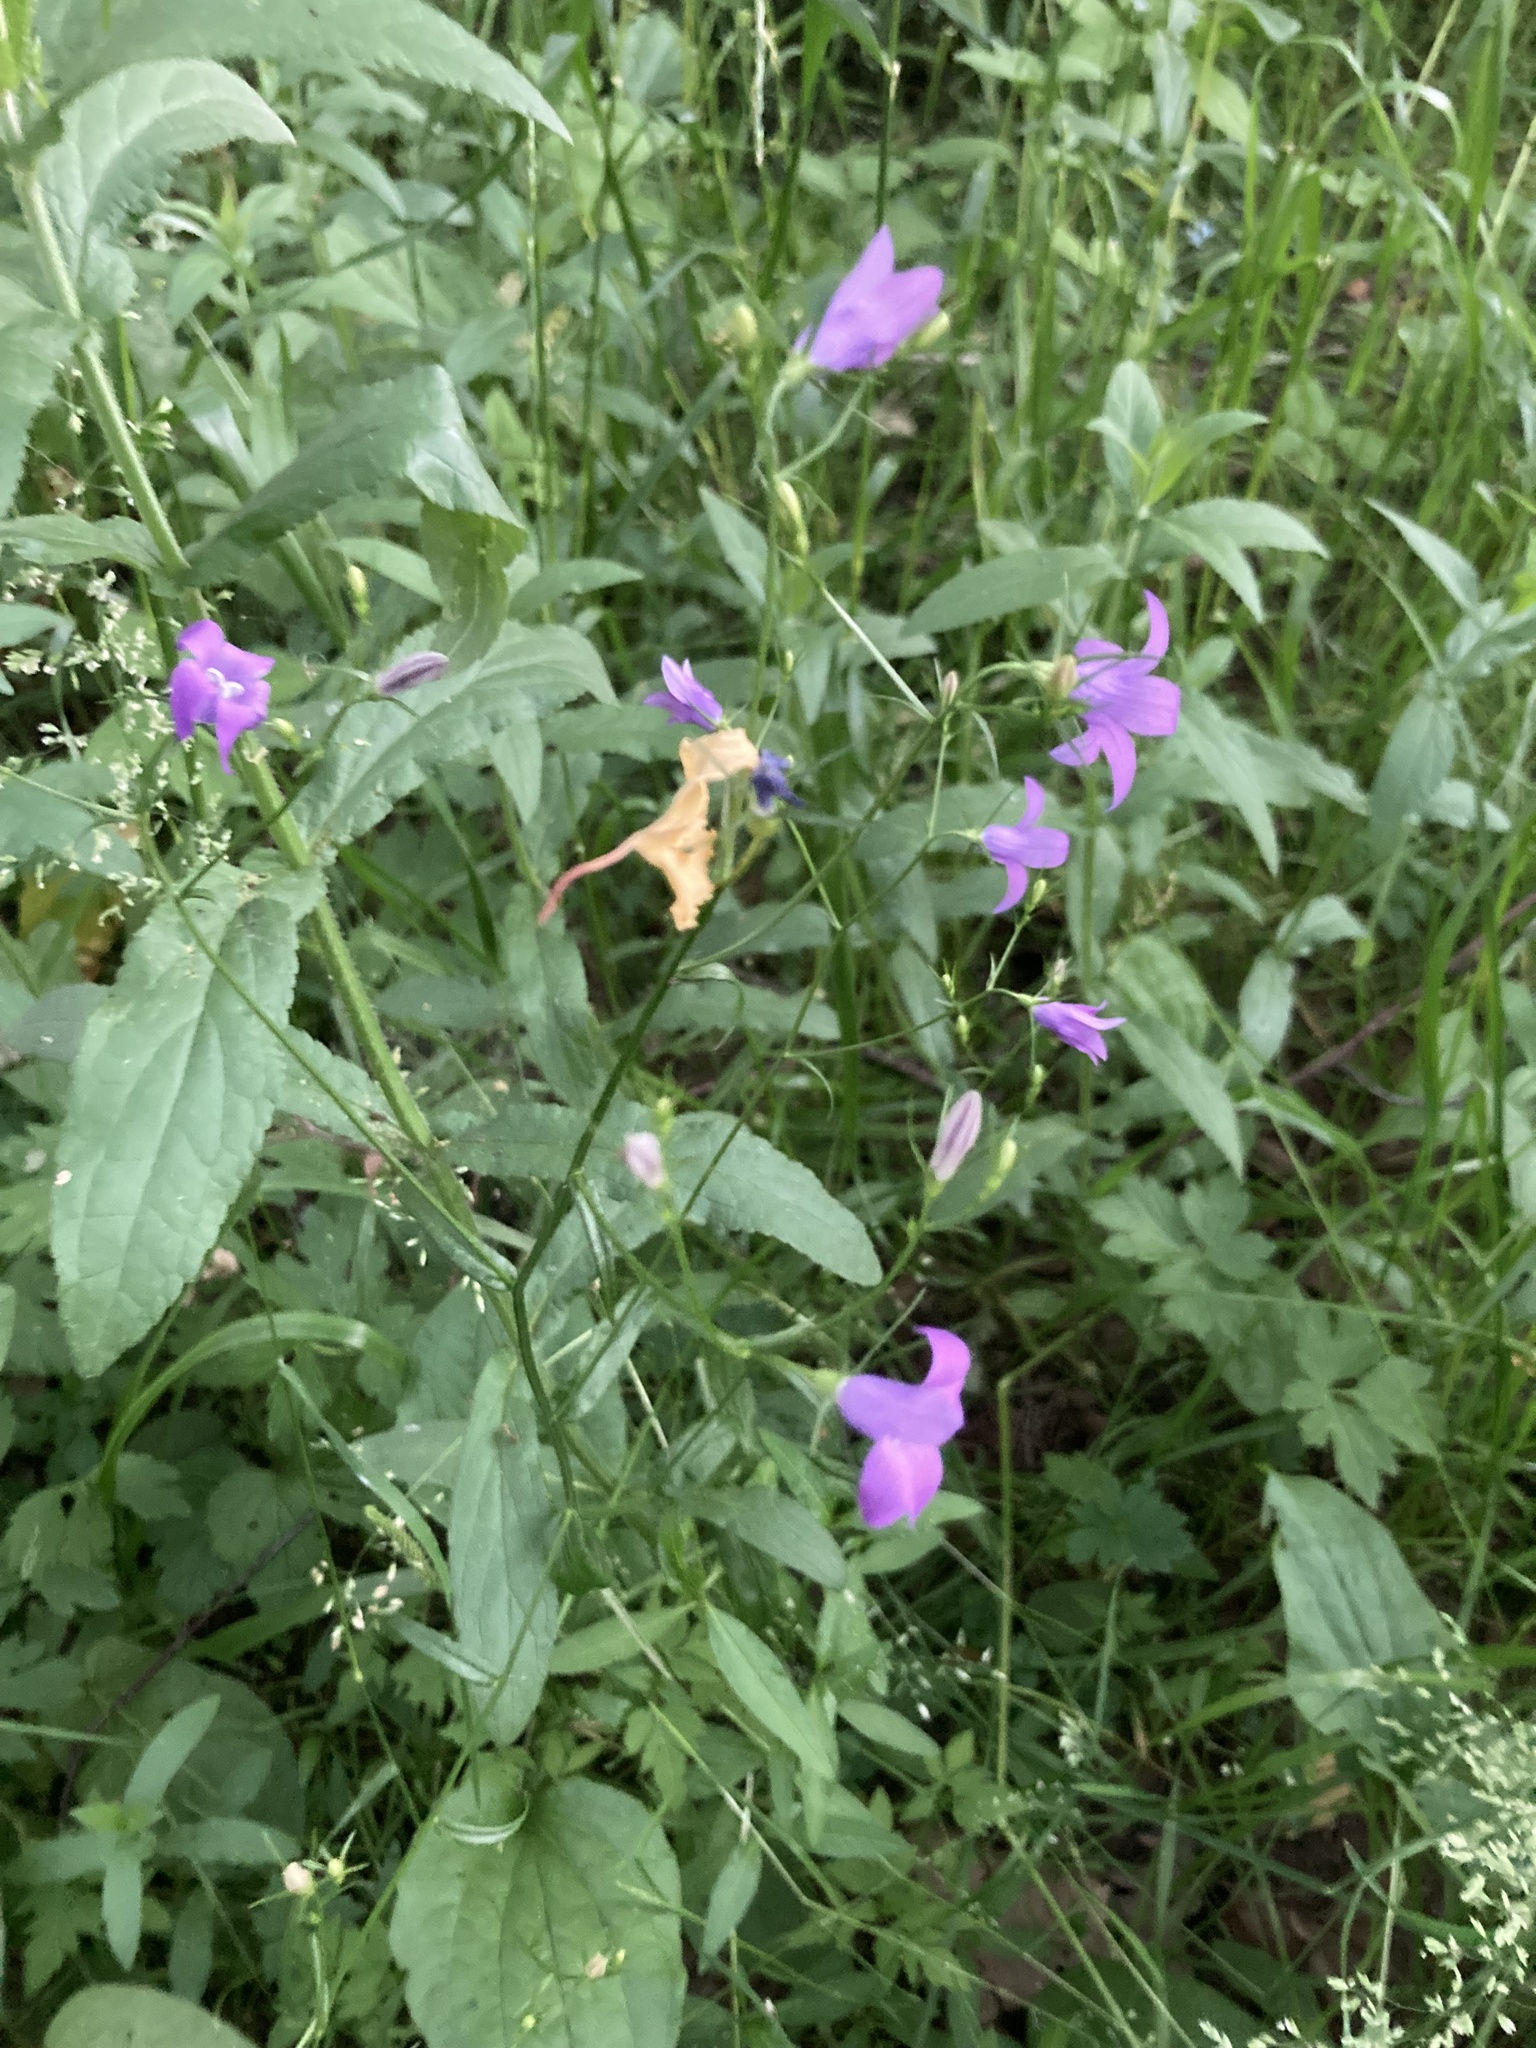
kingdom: Plantae
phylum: Tracheophyta
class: Magnoliopsida
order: Asterales
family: Campanulaceae
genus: Campanula
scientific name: Campanula patula
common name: Spreading bellflower
